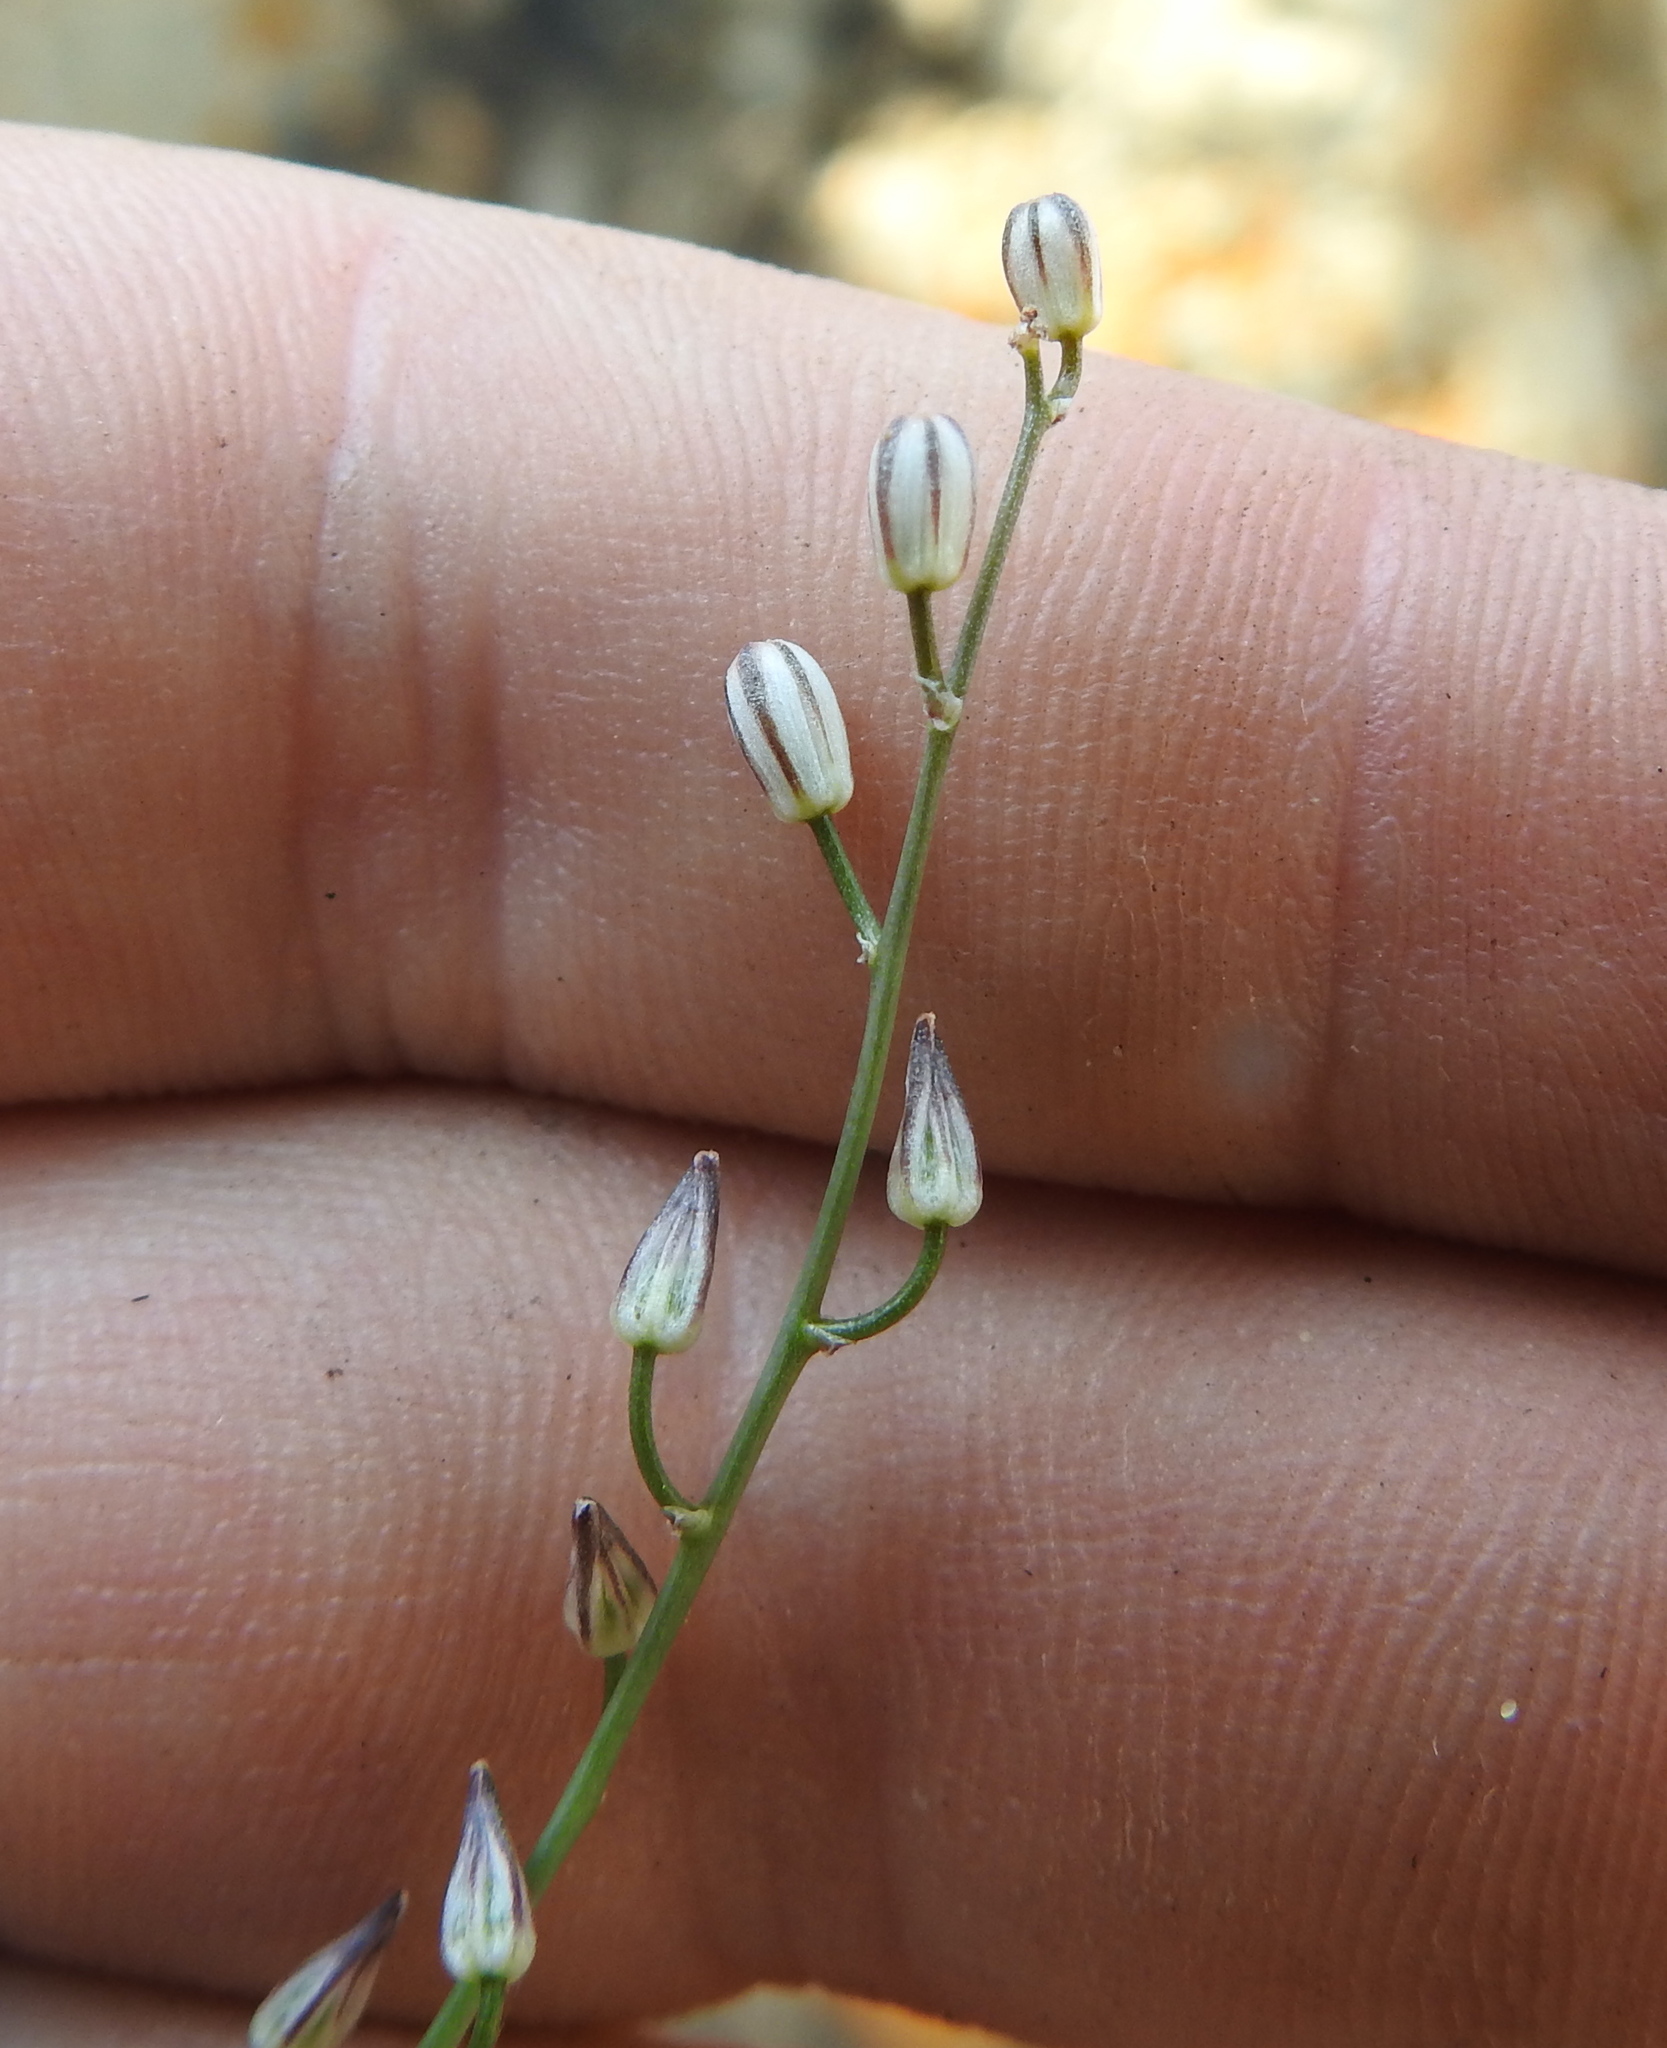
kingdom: Plantae
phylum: Tracheophyta
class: Liliopsida
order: Asparagales
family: Asparagaceae
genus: Drimia
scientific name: Drimia calcarata
